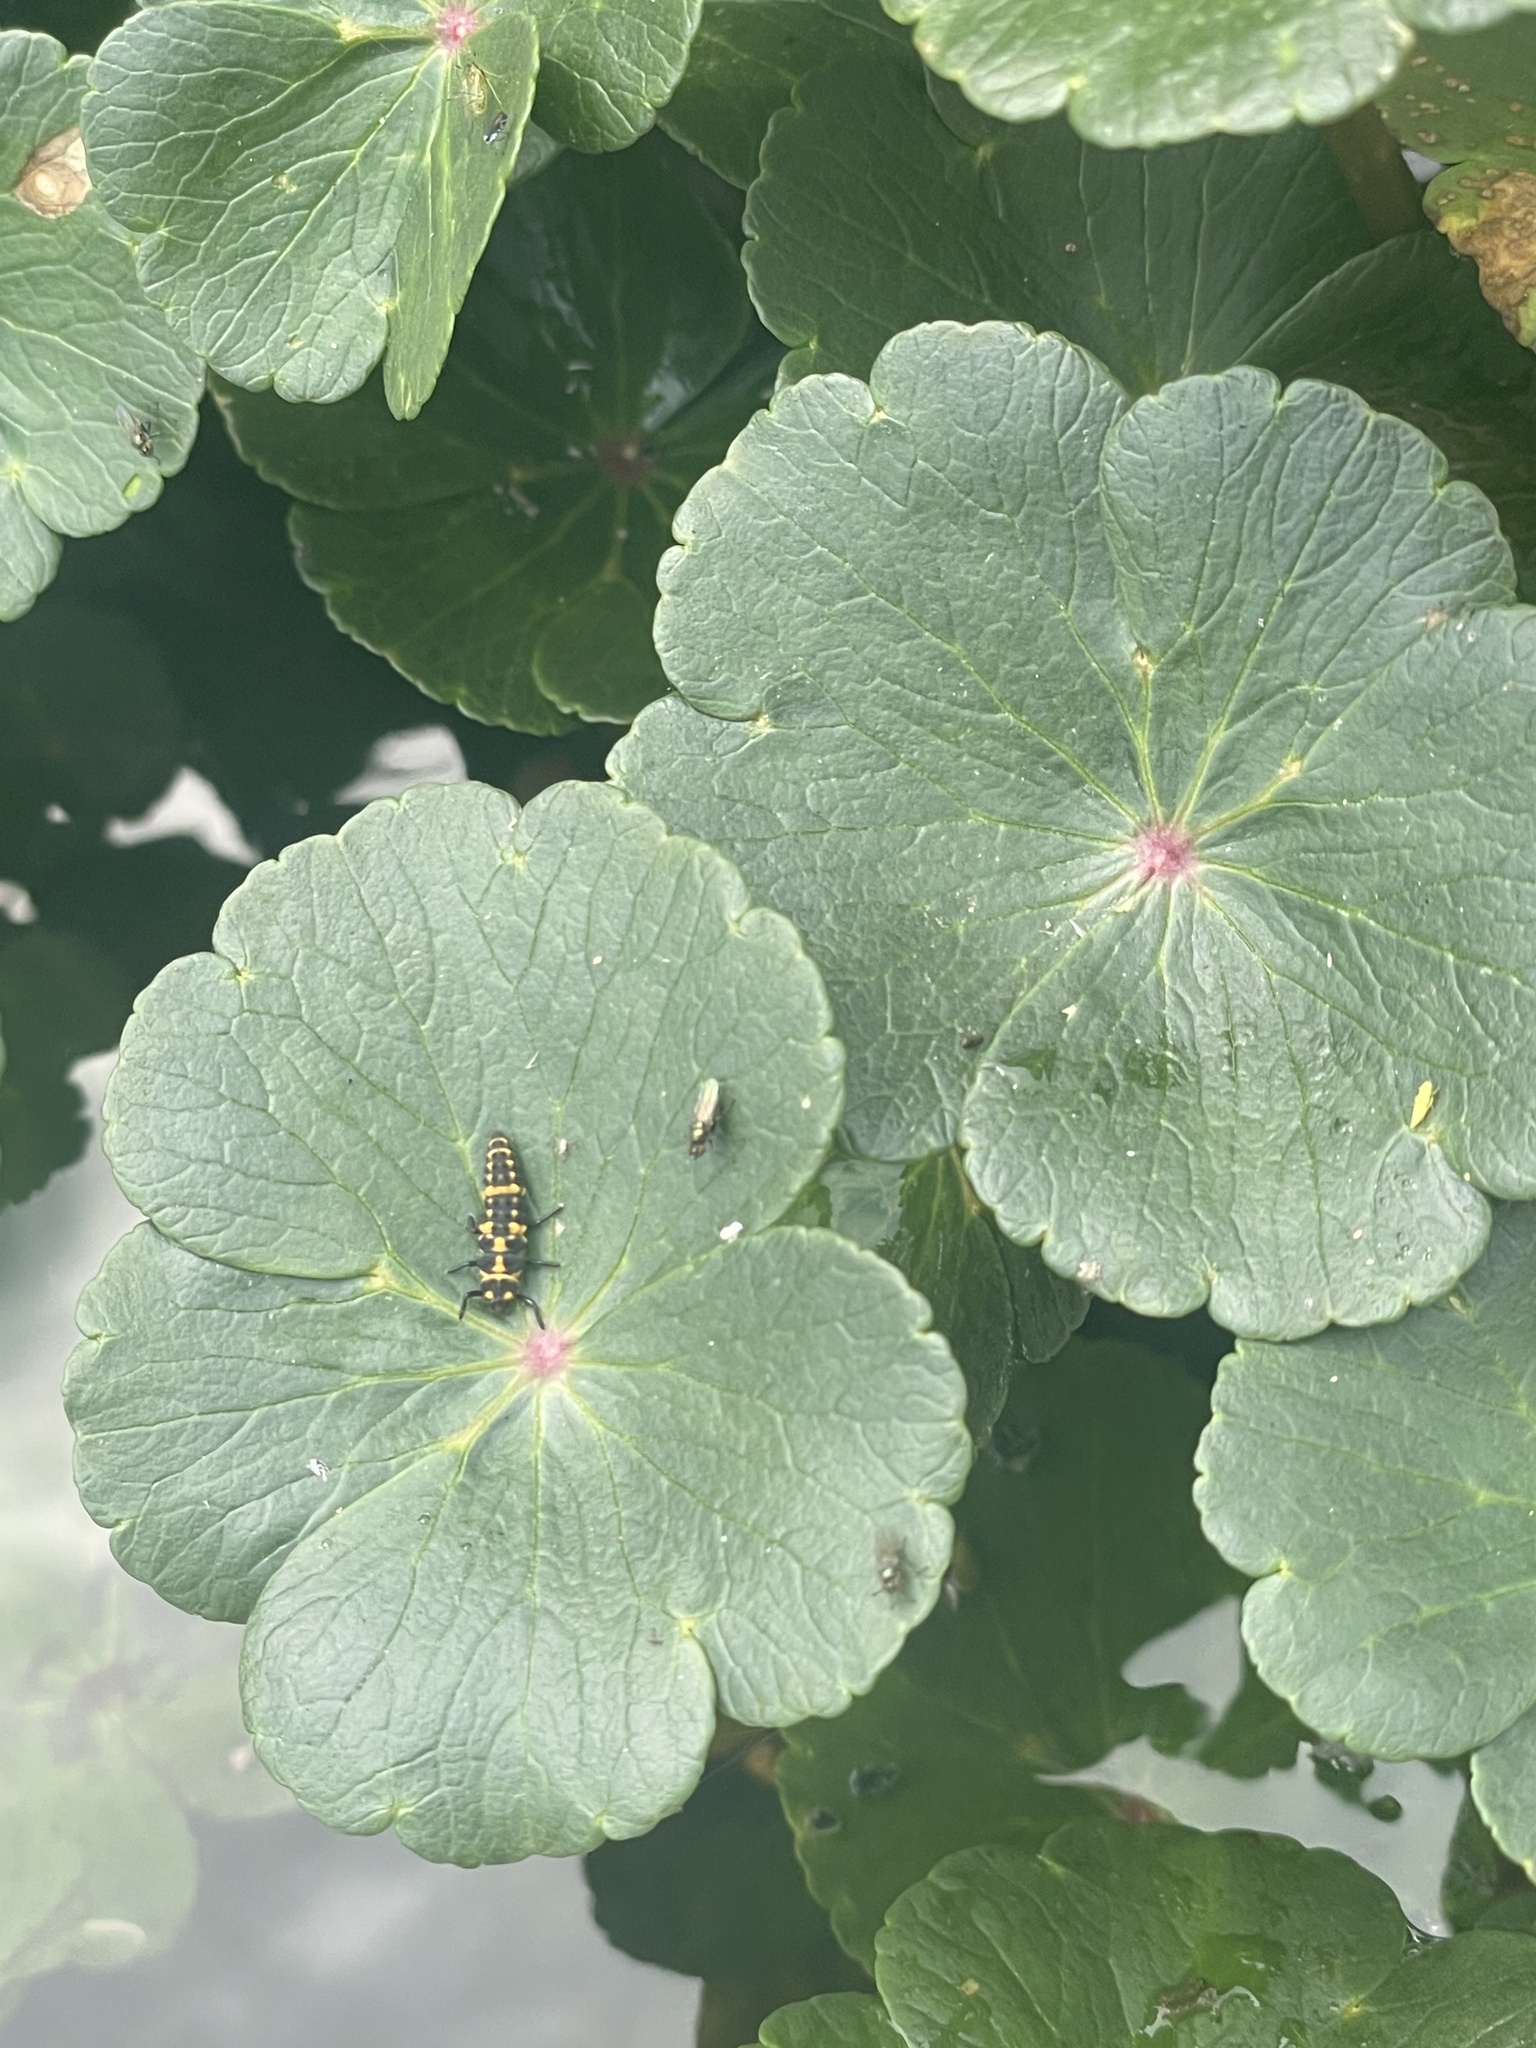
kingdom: Animalia
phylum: Arthropoda
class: Insecta
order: Coleoptera
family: Coccinellidae
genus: Coleomegilla
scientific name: Coleomegilla maculata
